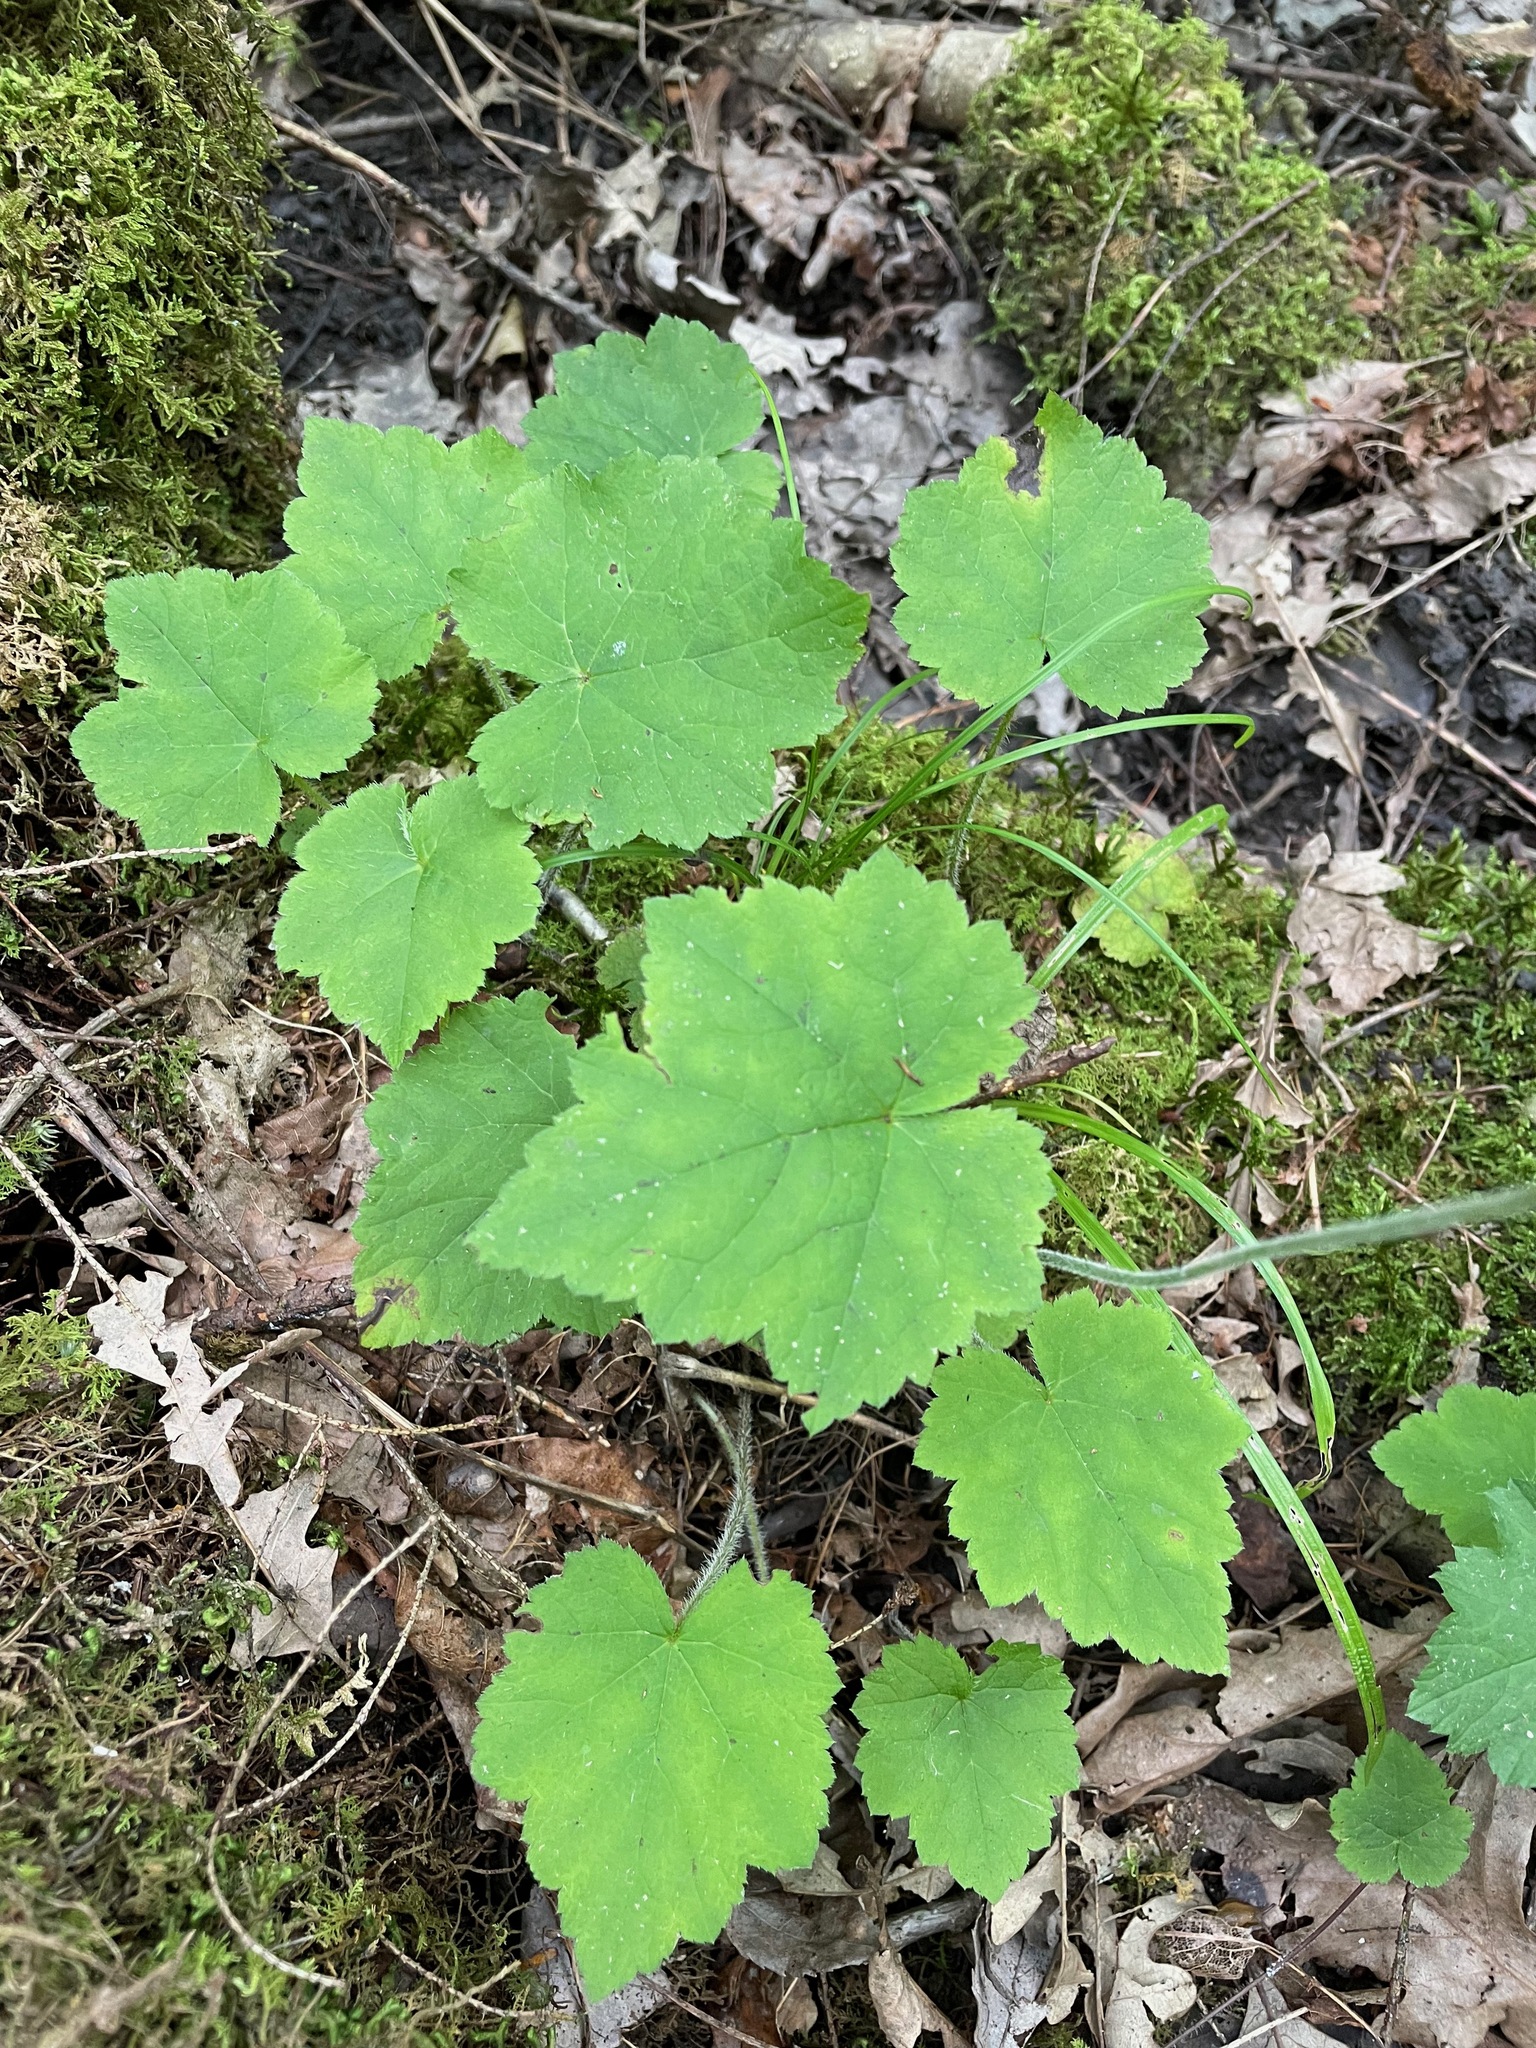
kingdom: Plantae
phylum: Tracheophyta
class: Magnoliopsida
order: Saxifragales
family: Saxifragaceae
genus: Tiarella
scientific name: Tiarella stolonifera
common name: Stoloniferous foamflower
